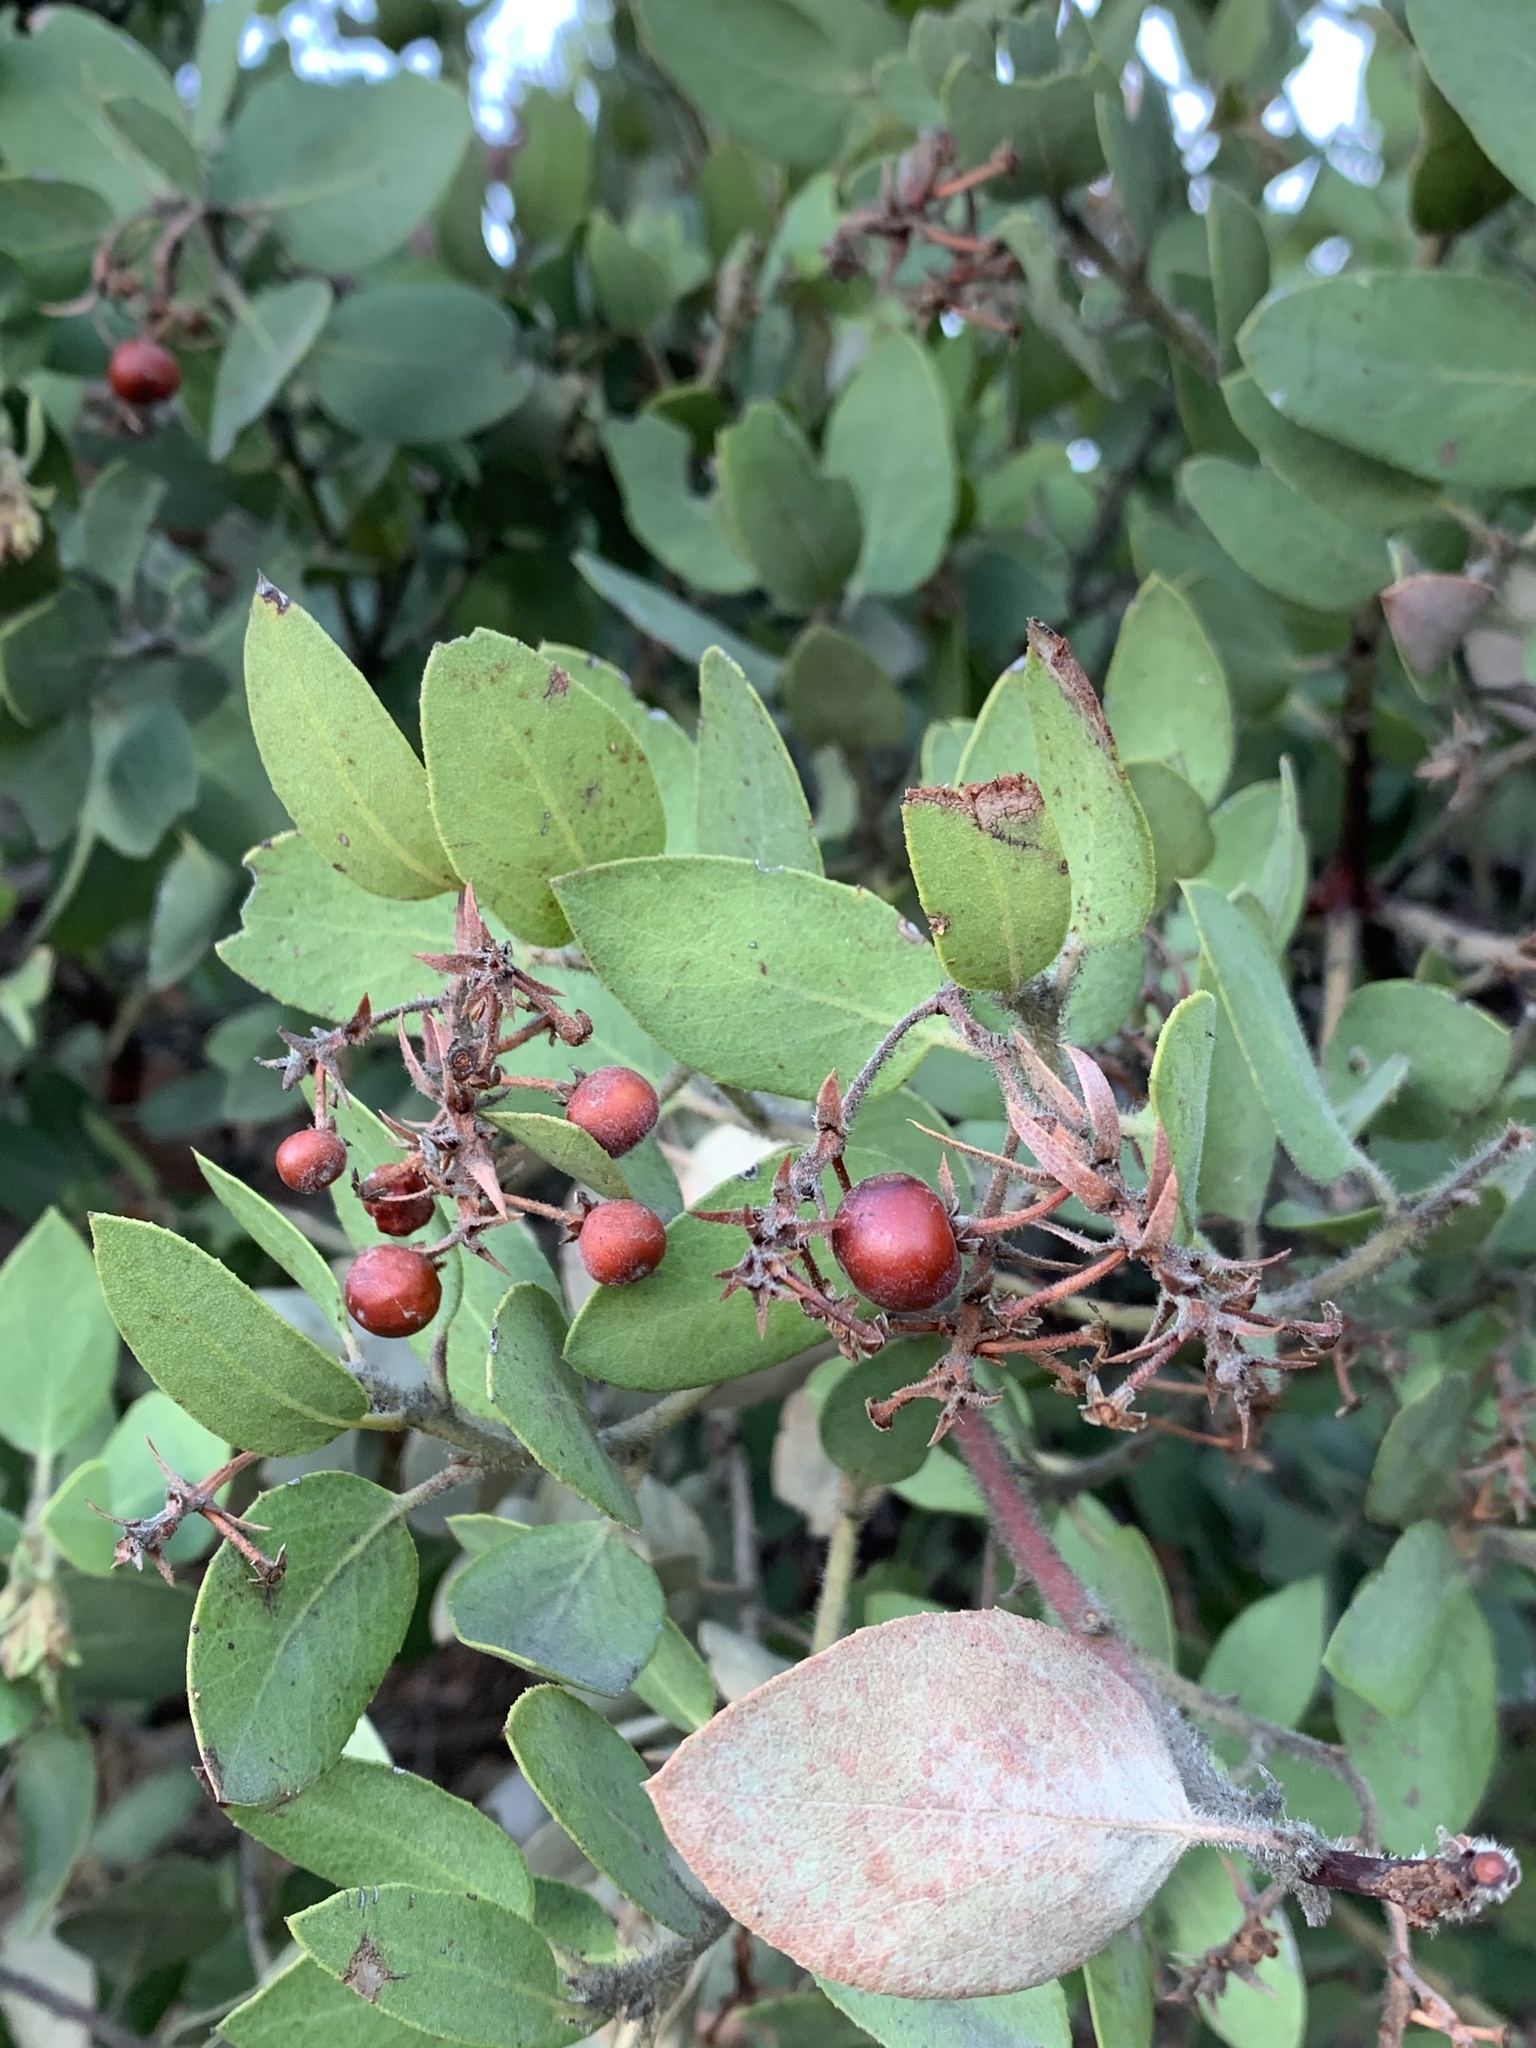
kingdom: Plantae
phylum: Tracheophyta
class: Magnoliopsida
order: Ericales
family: Ericaceae
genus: Arctostaphylos
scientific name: Arctostaphylos glandulosa
